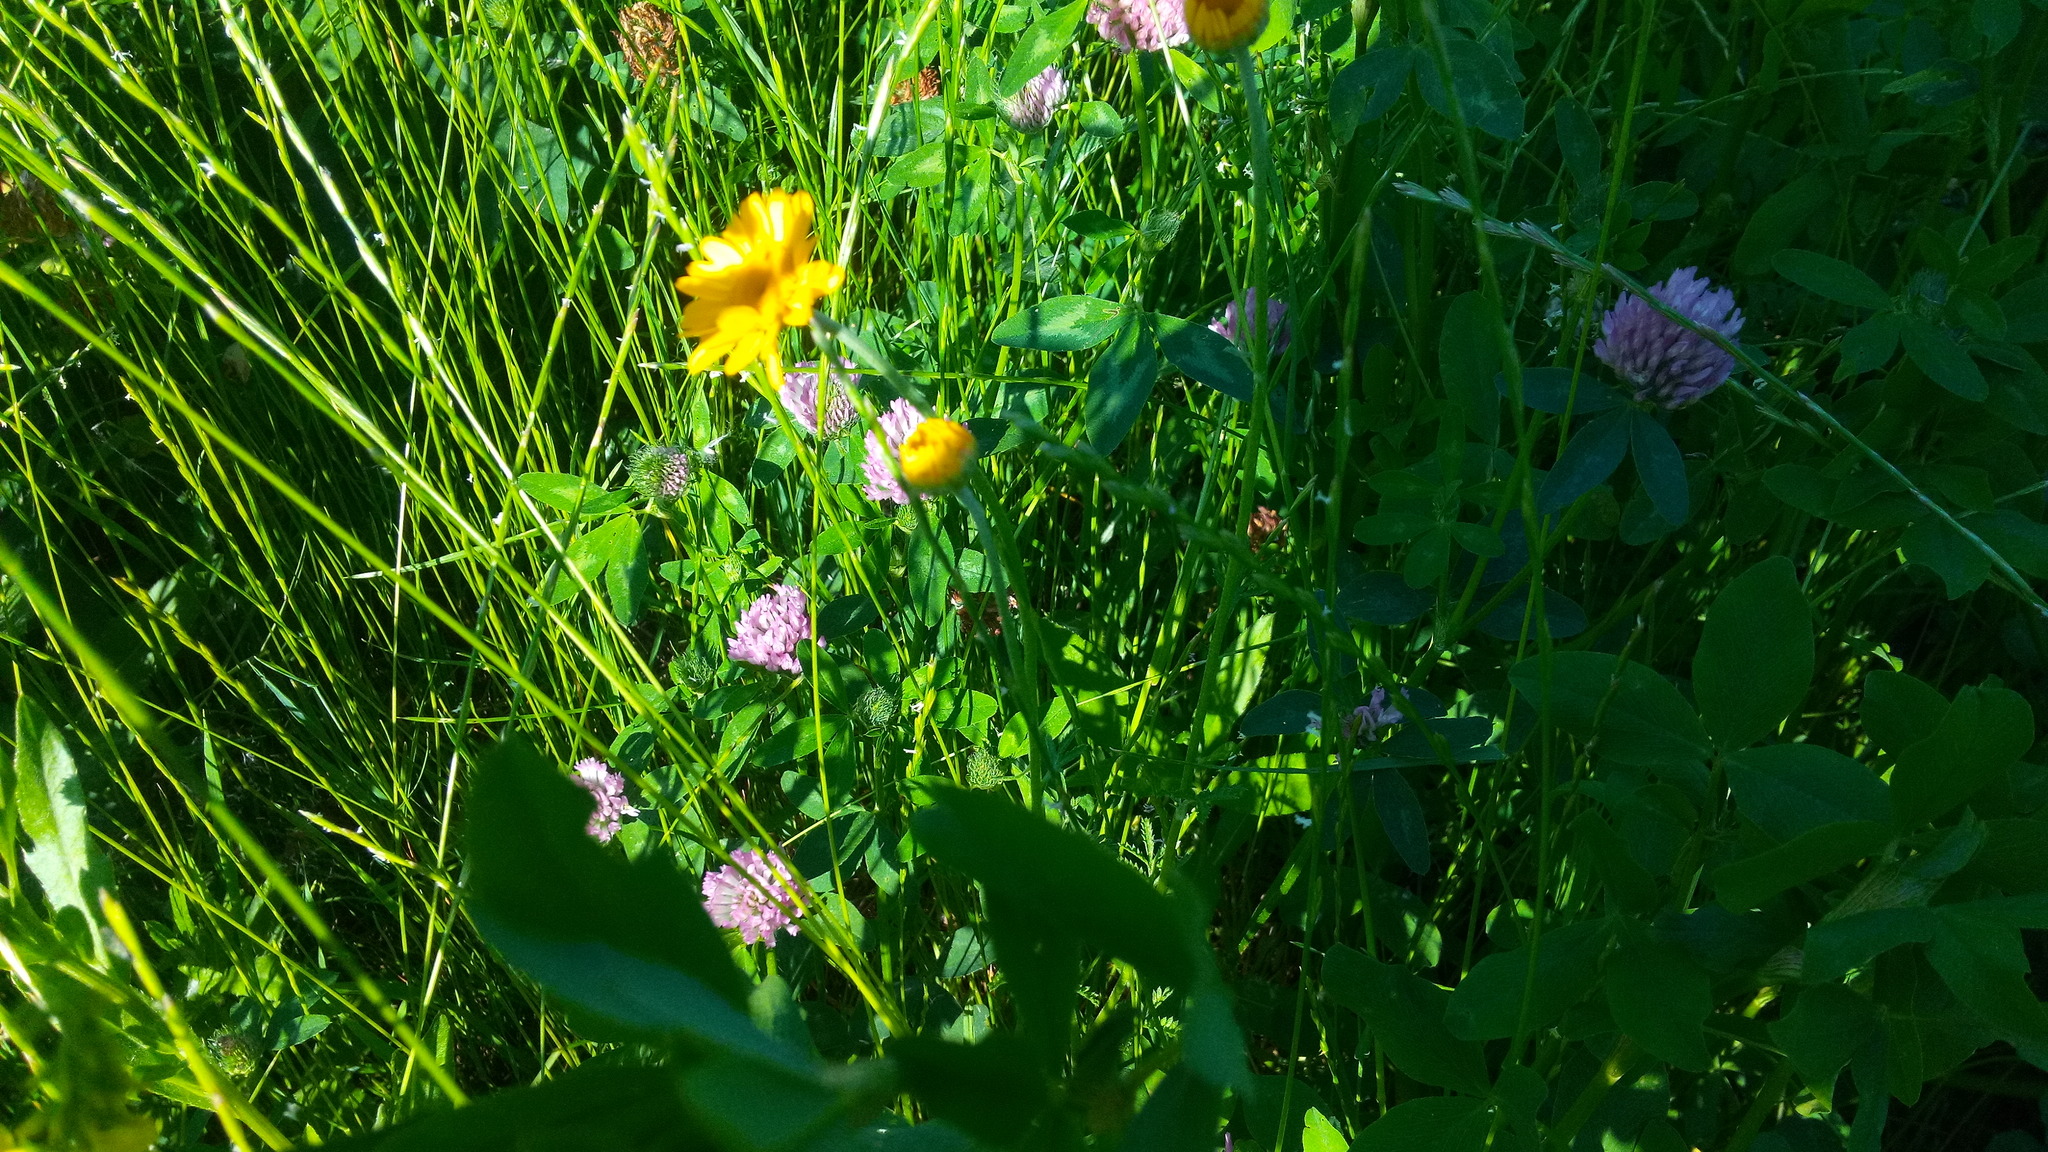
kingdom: Plantae
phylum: Tracheophyta
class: Magnoliopsida
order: Asterales
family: Asteraceae
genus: Cota
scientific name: Cota tinctoria
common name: Golden chamomile
